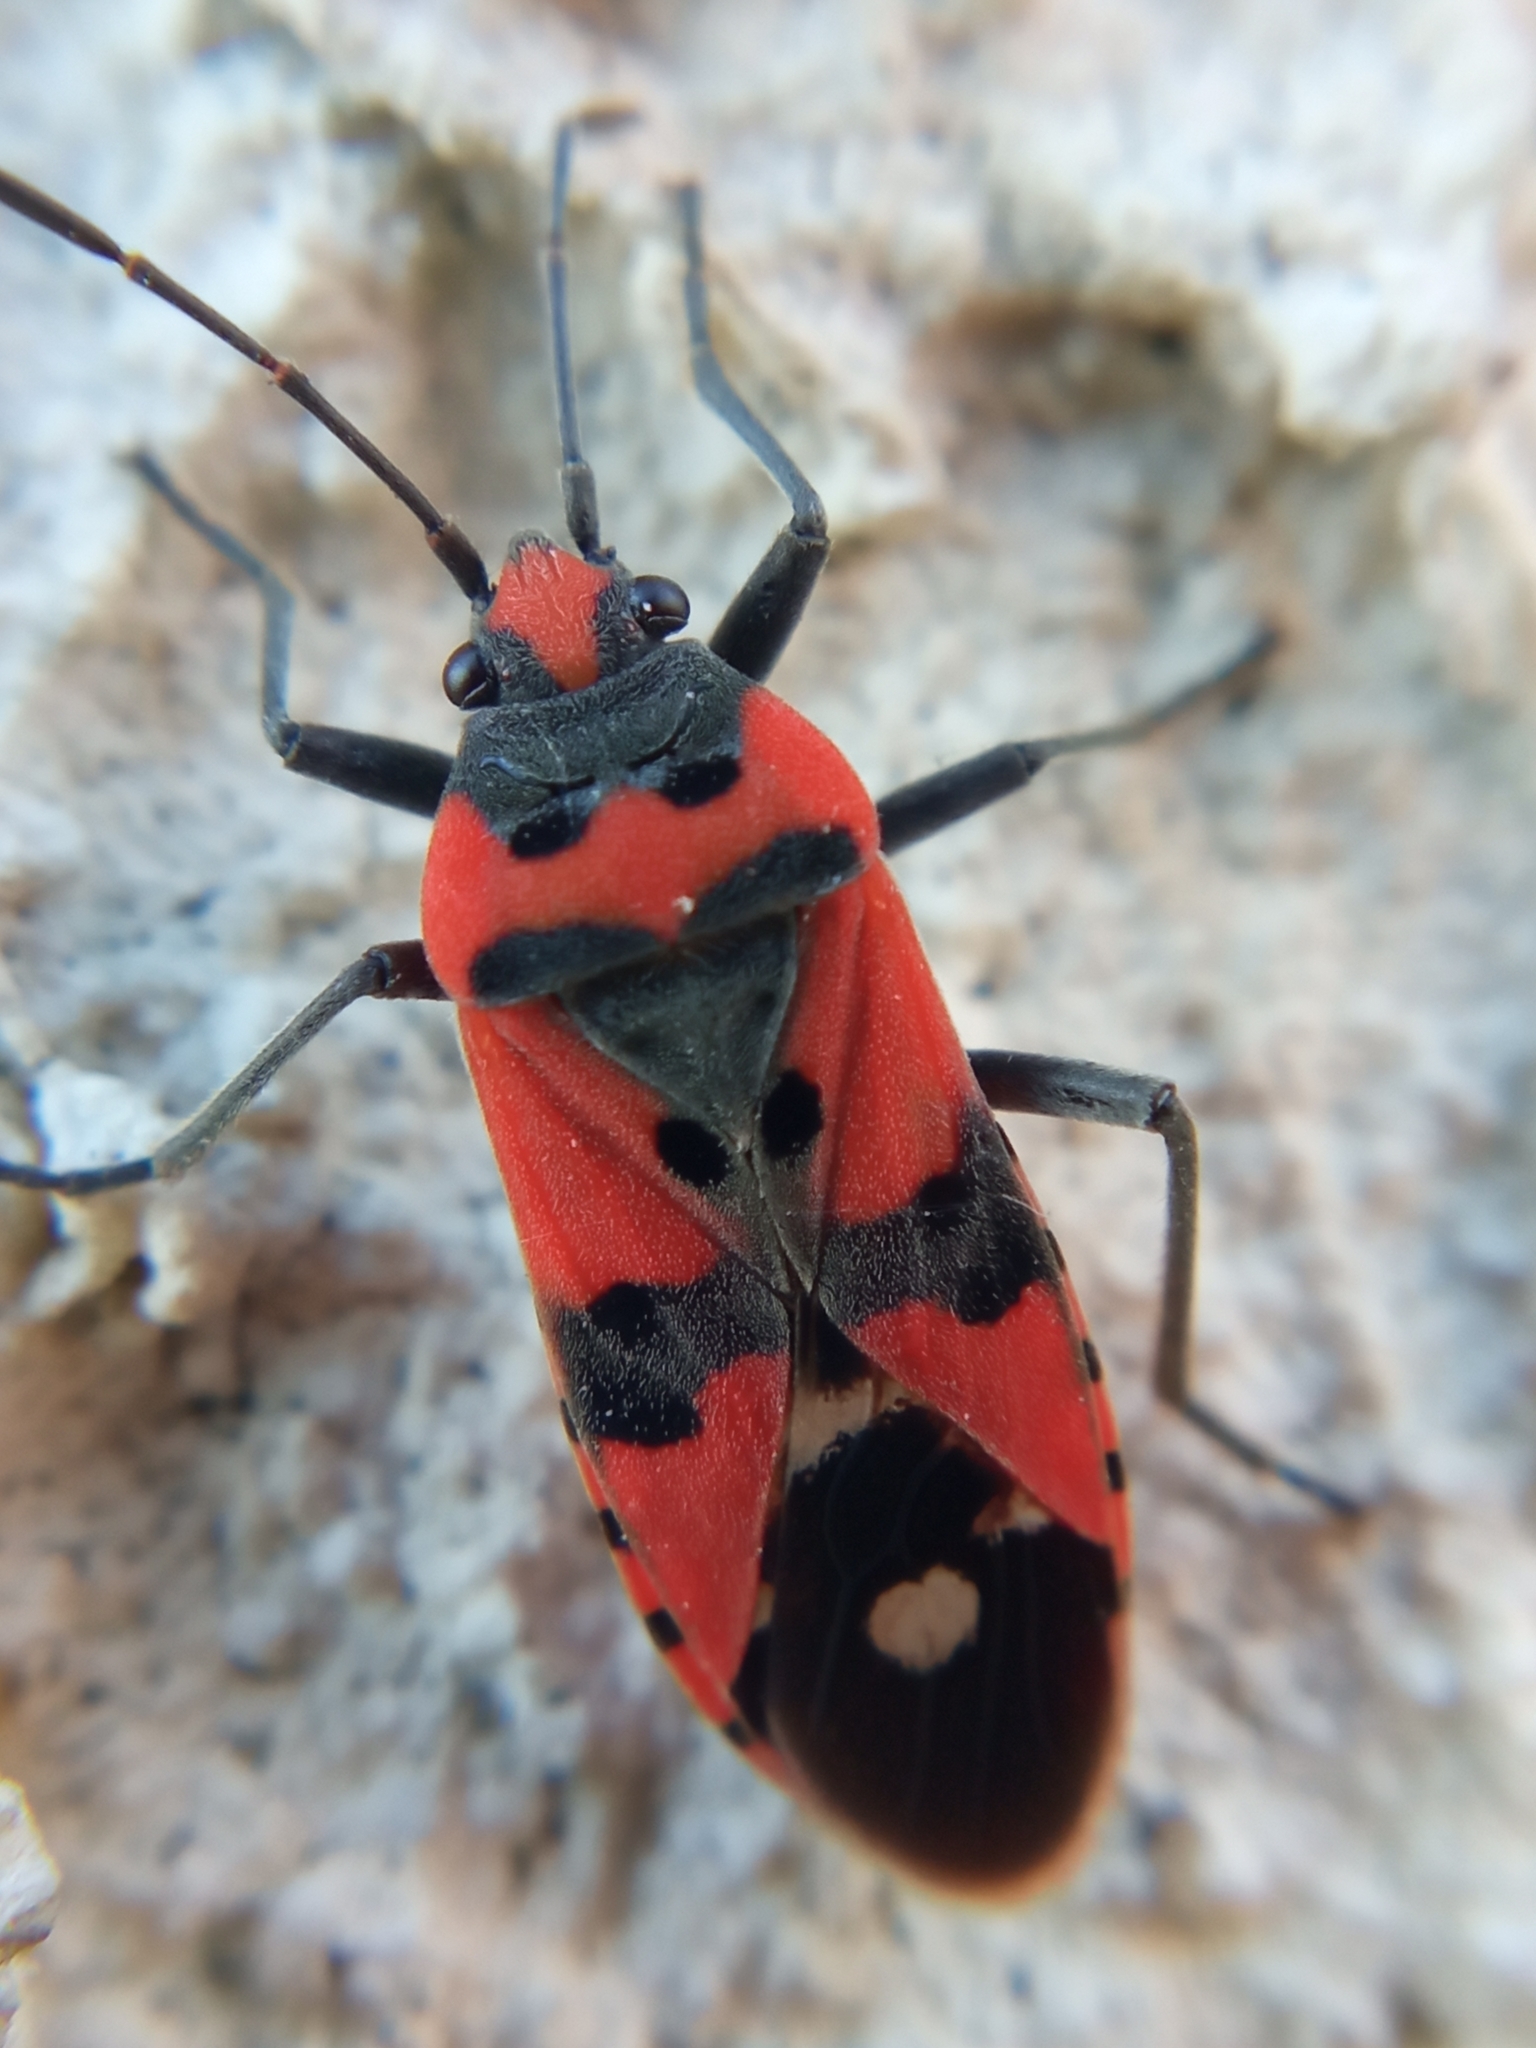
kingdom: Animalia
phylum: Arthropoda
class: Insecta
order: Hemiptera
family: Lygaeidae
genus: Lygaeus
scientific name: Lygaeus equestris
